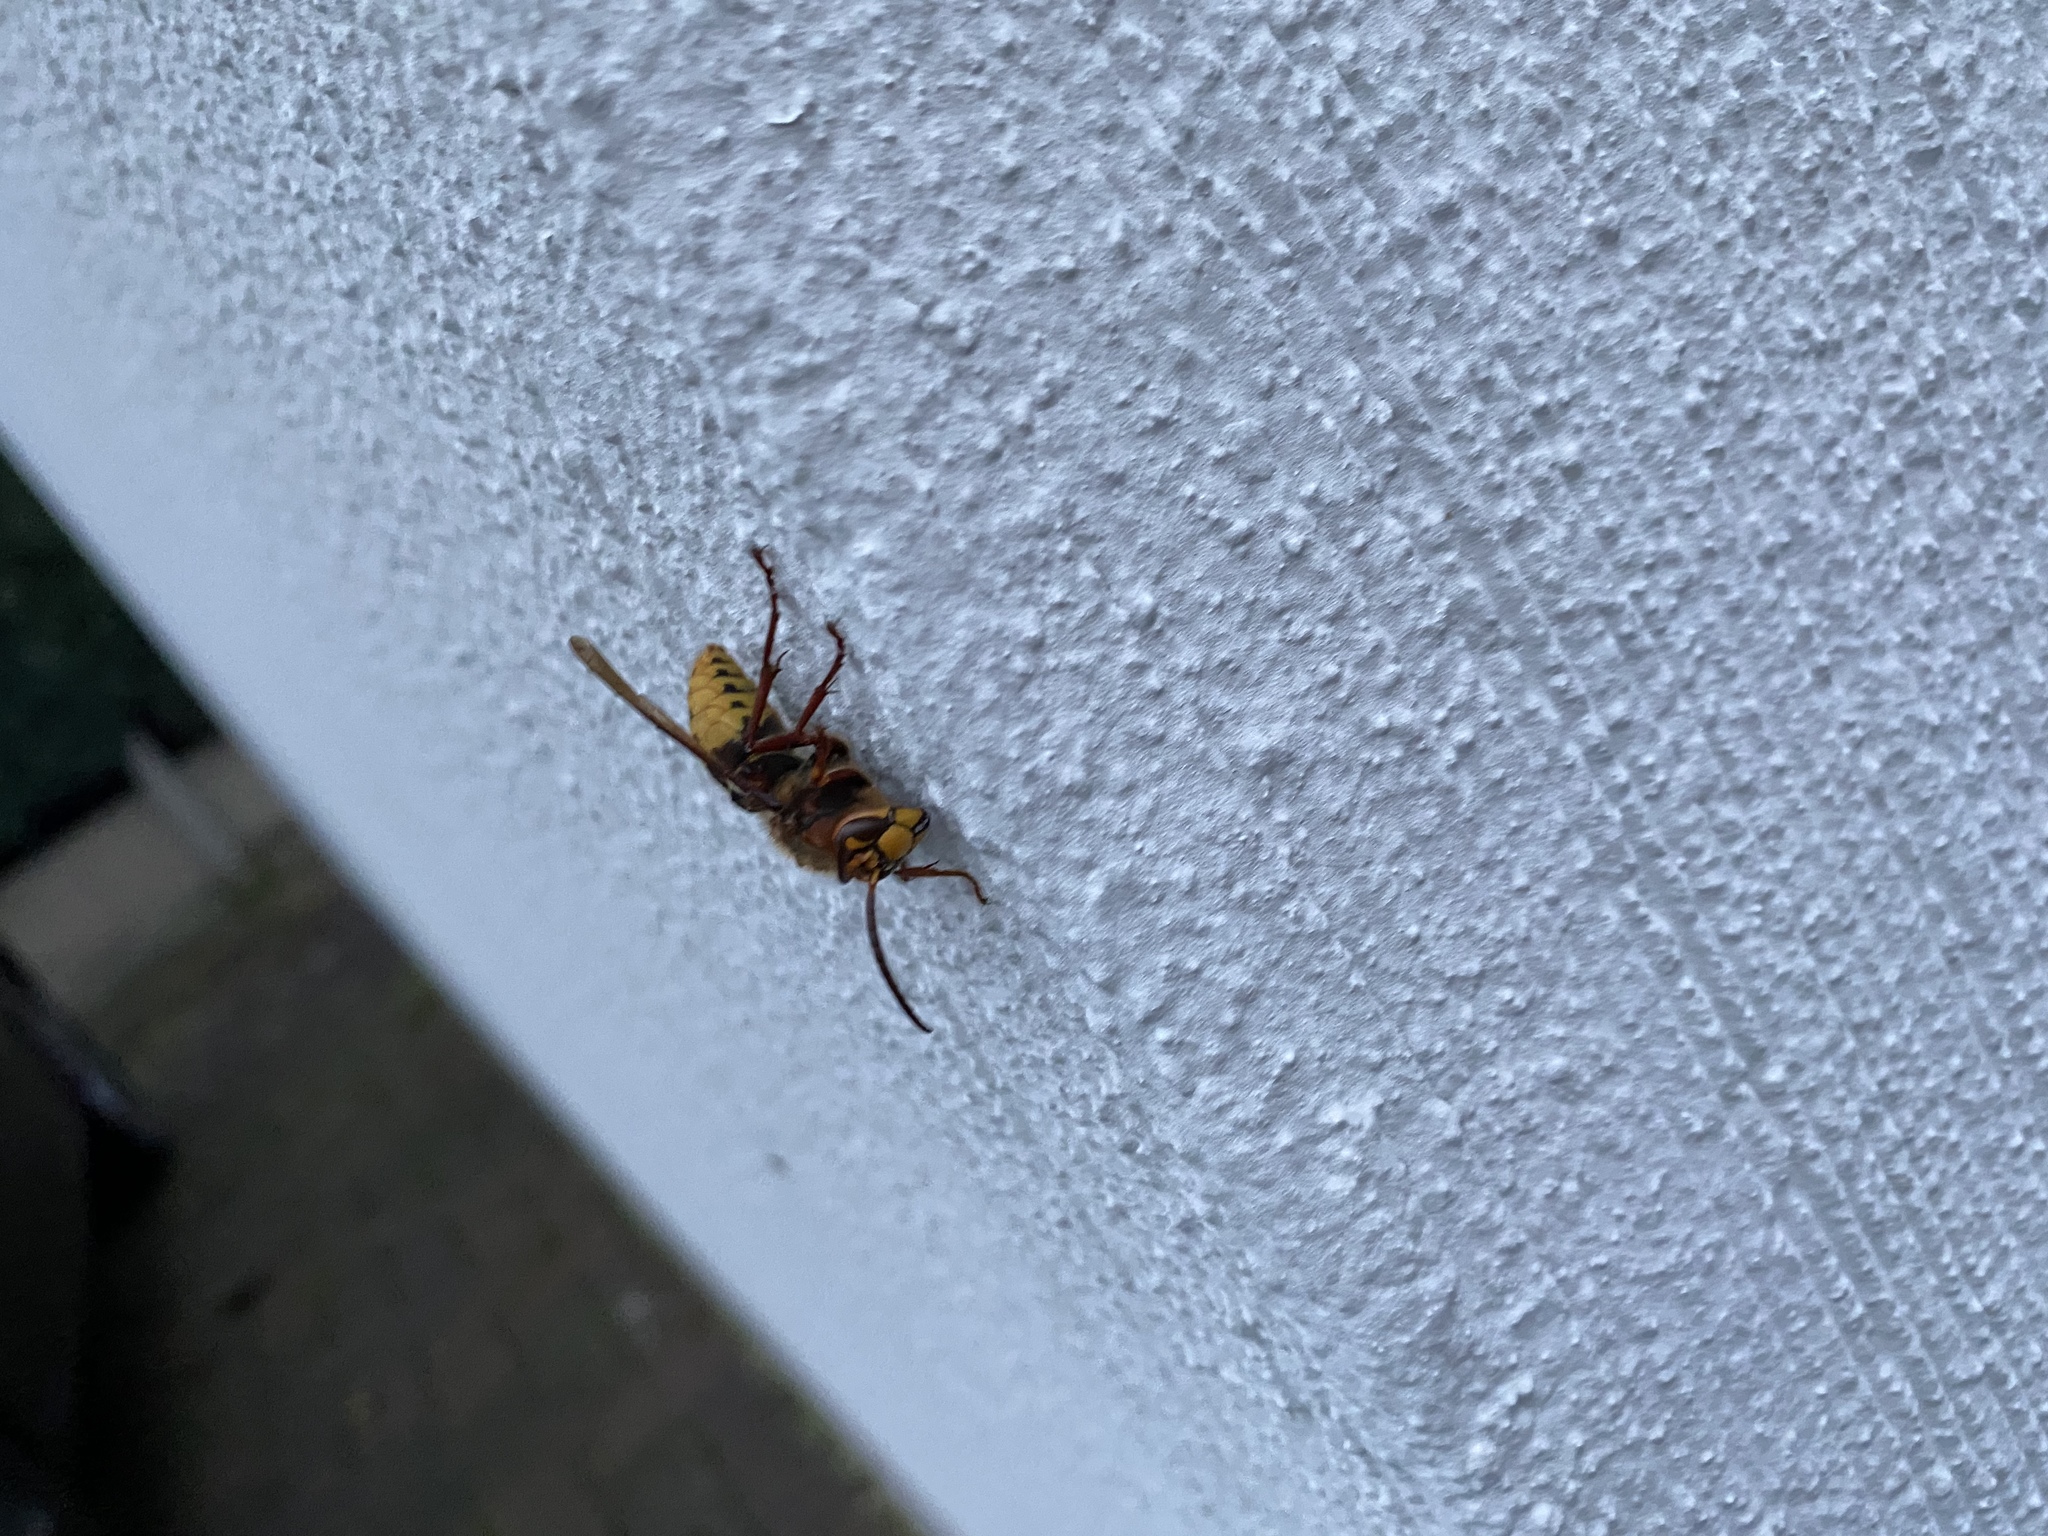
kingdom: Animalia
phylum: Arthropoda
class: Insecta
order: Hymenoptera
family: Vespidae
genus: Vespa
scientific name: Vespa crabro
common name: Hornet
